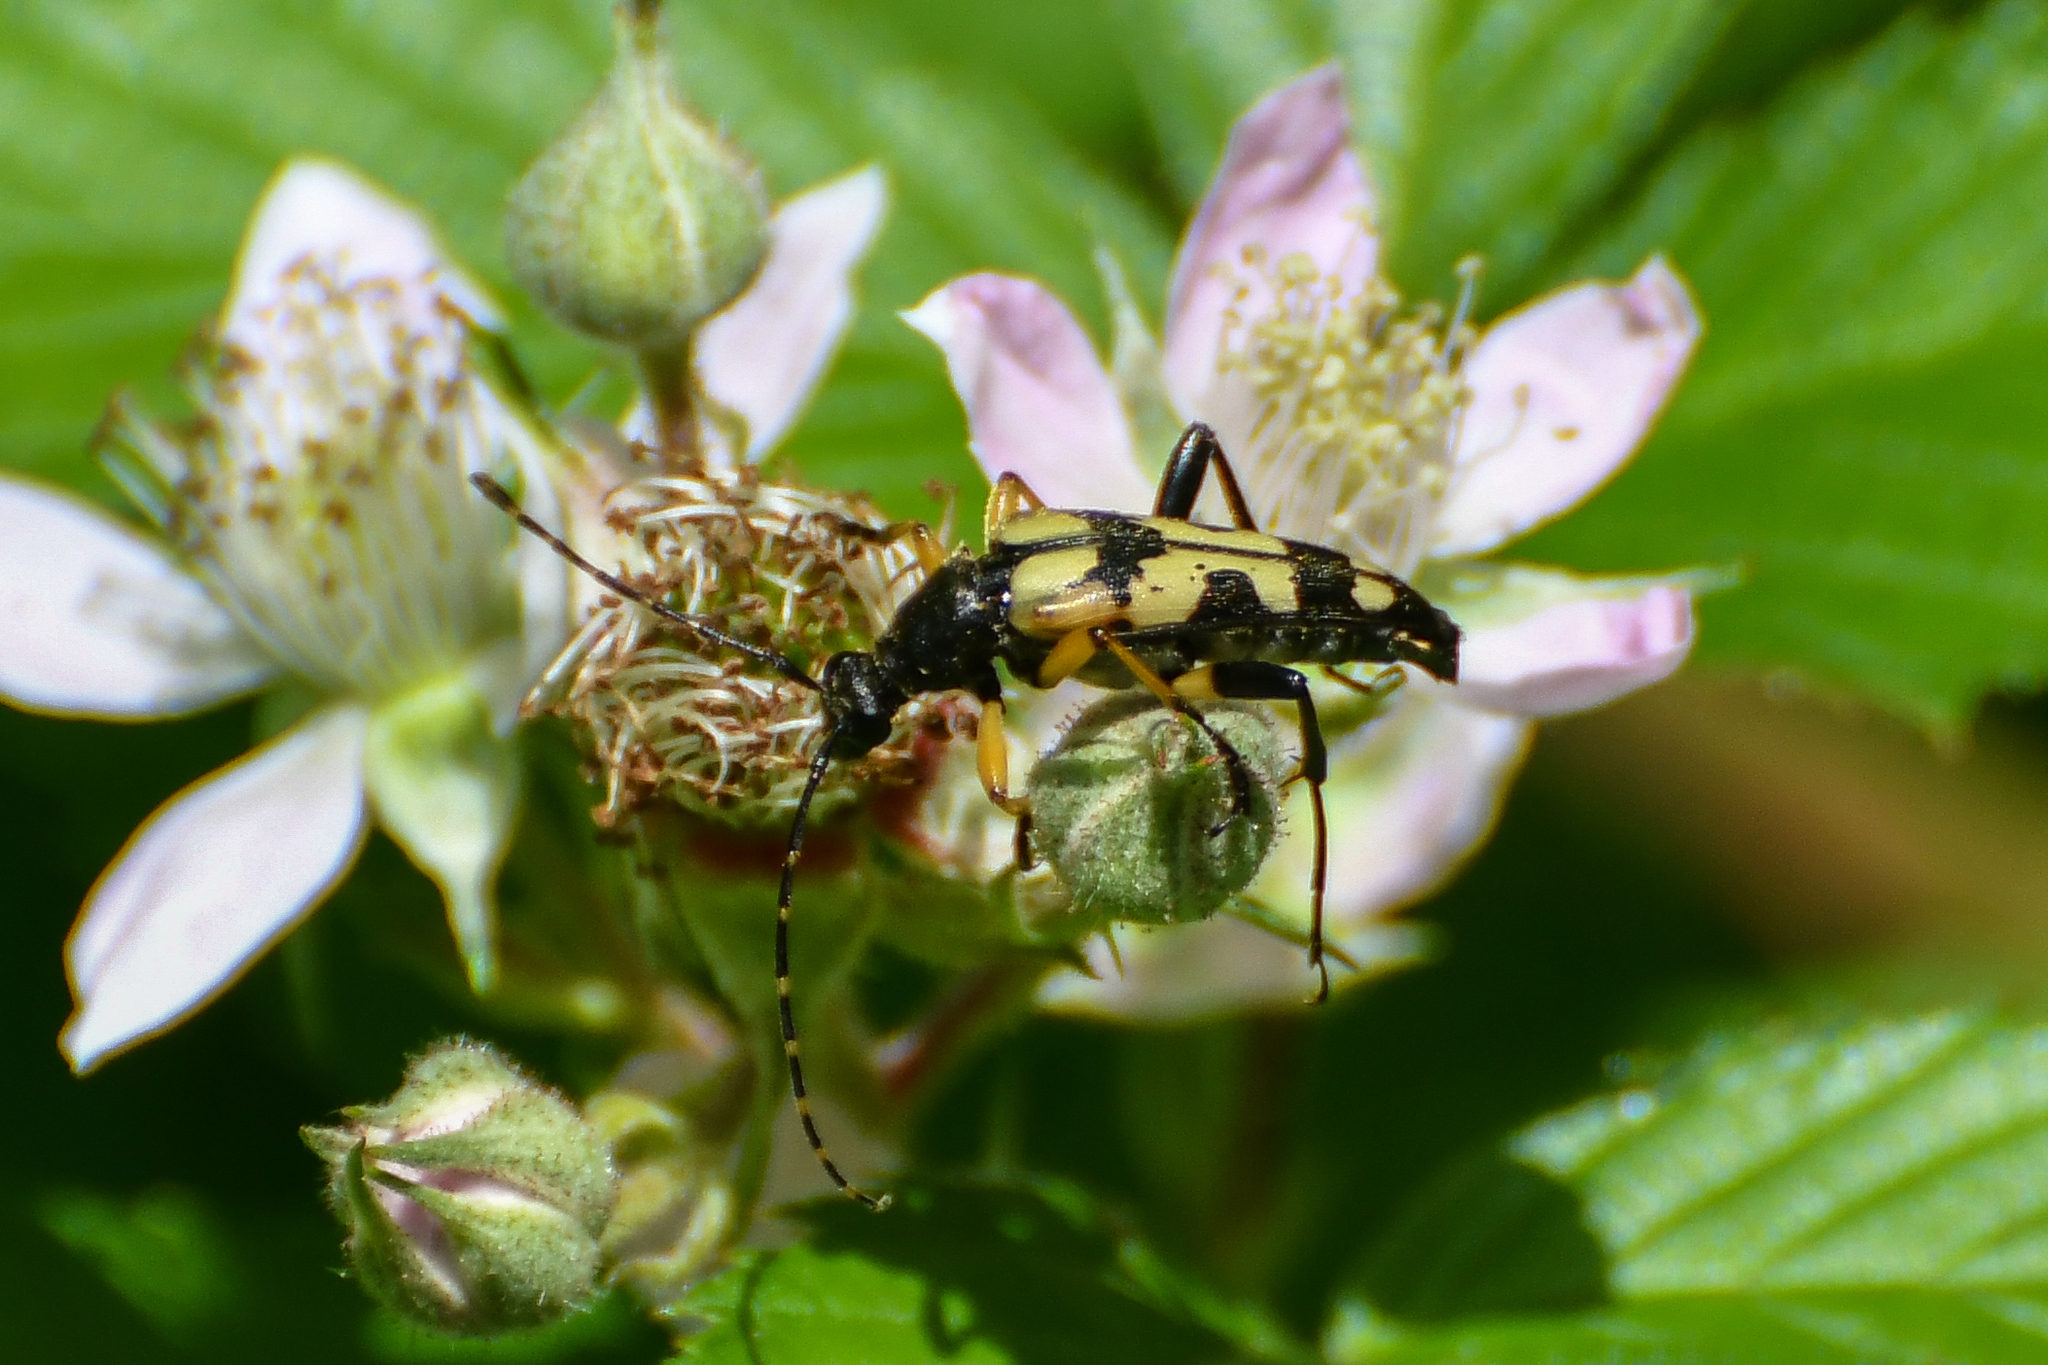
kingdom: Animalia
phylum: Arthropoda
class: Insecta
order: Coleoptera
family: Cerambycidae
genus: Rutpela
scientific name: Rutpela maculata
